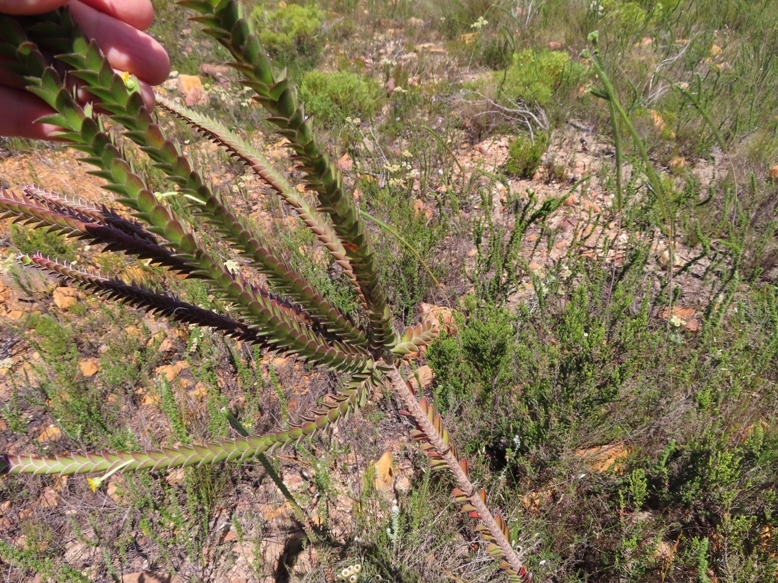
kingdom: Plantae
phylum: Tracheophyta
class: Magnoliopsida
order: Malvales
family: Thymelaeaceae
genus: Struthiola
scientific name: Struthiola argentea
